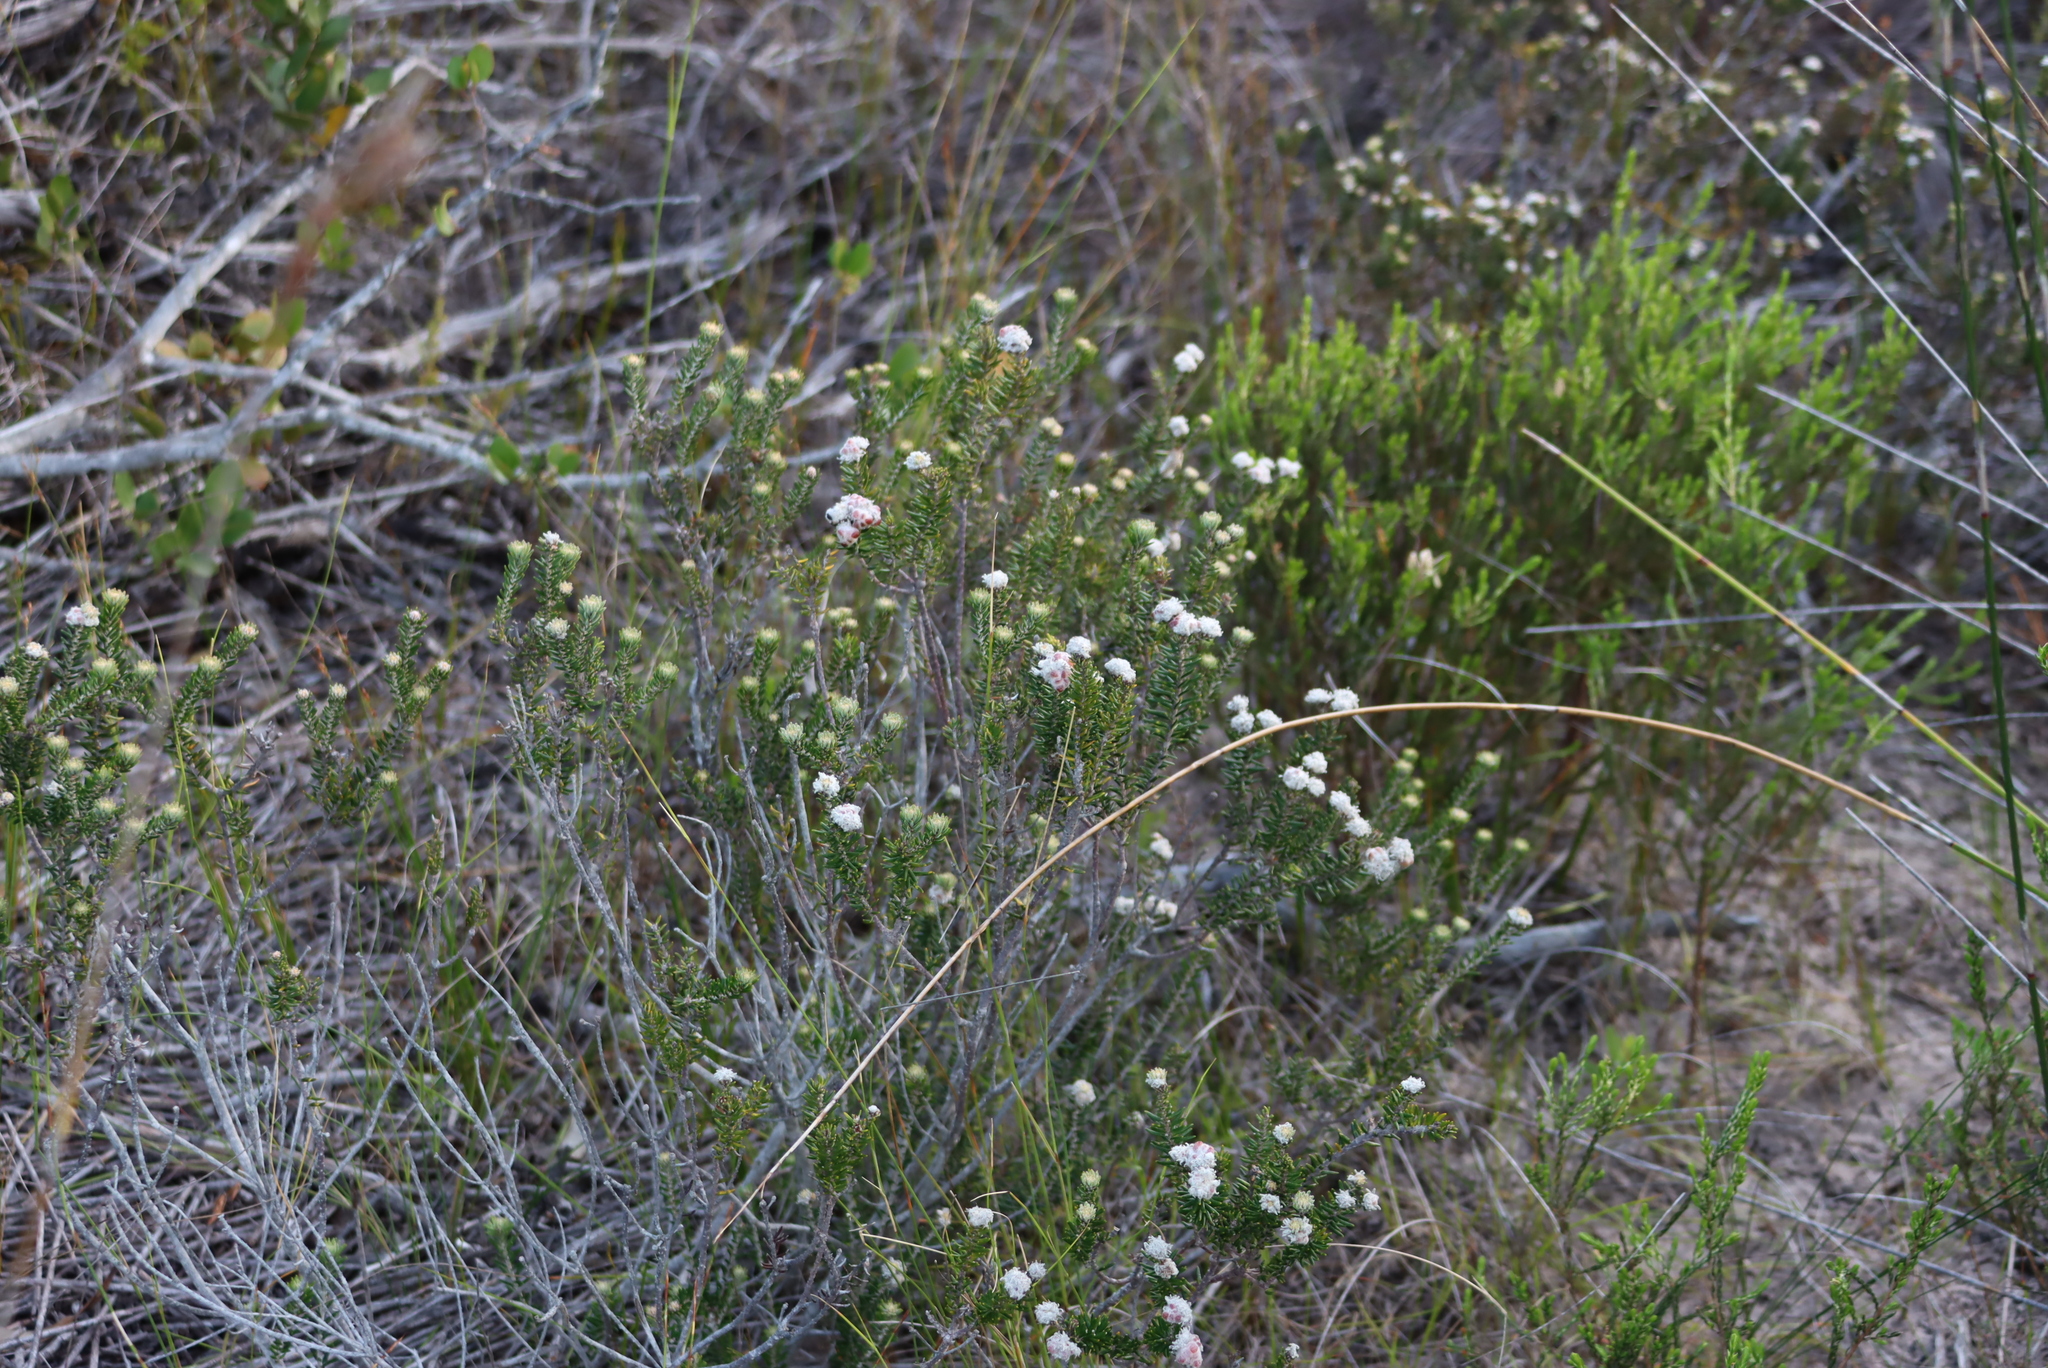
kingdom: Plantae
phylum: Tracheophyta
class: Magnoliopsida
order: Rosales
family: Rhamnaceae
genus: Trichocephalus
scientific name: Trichocephalus stipularis
